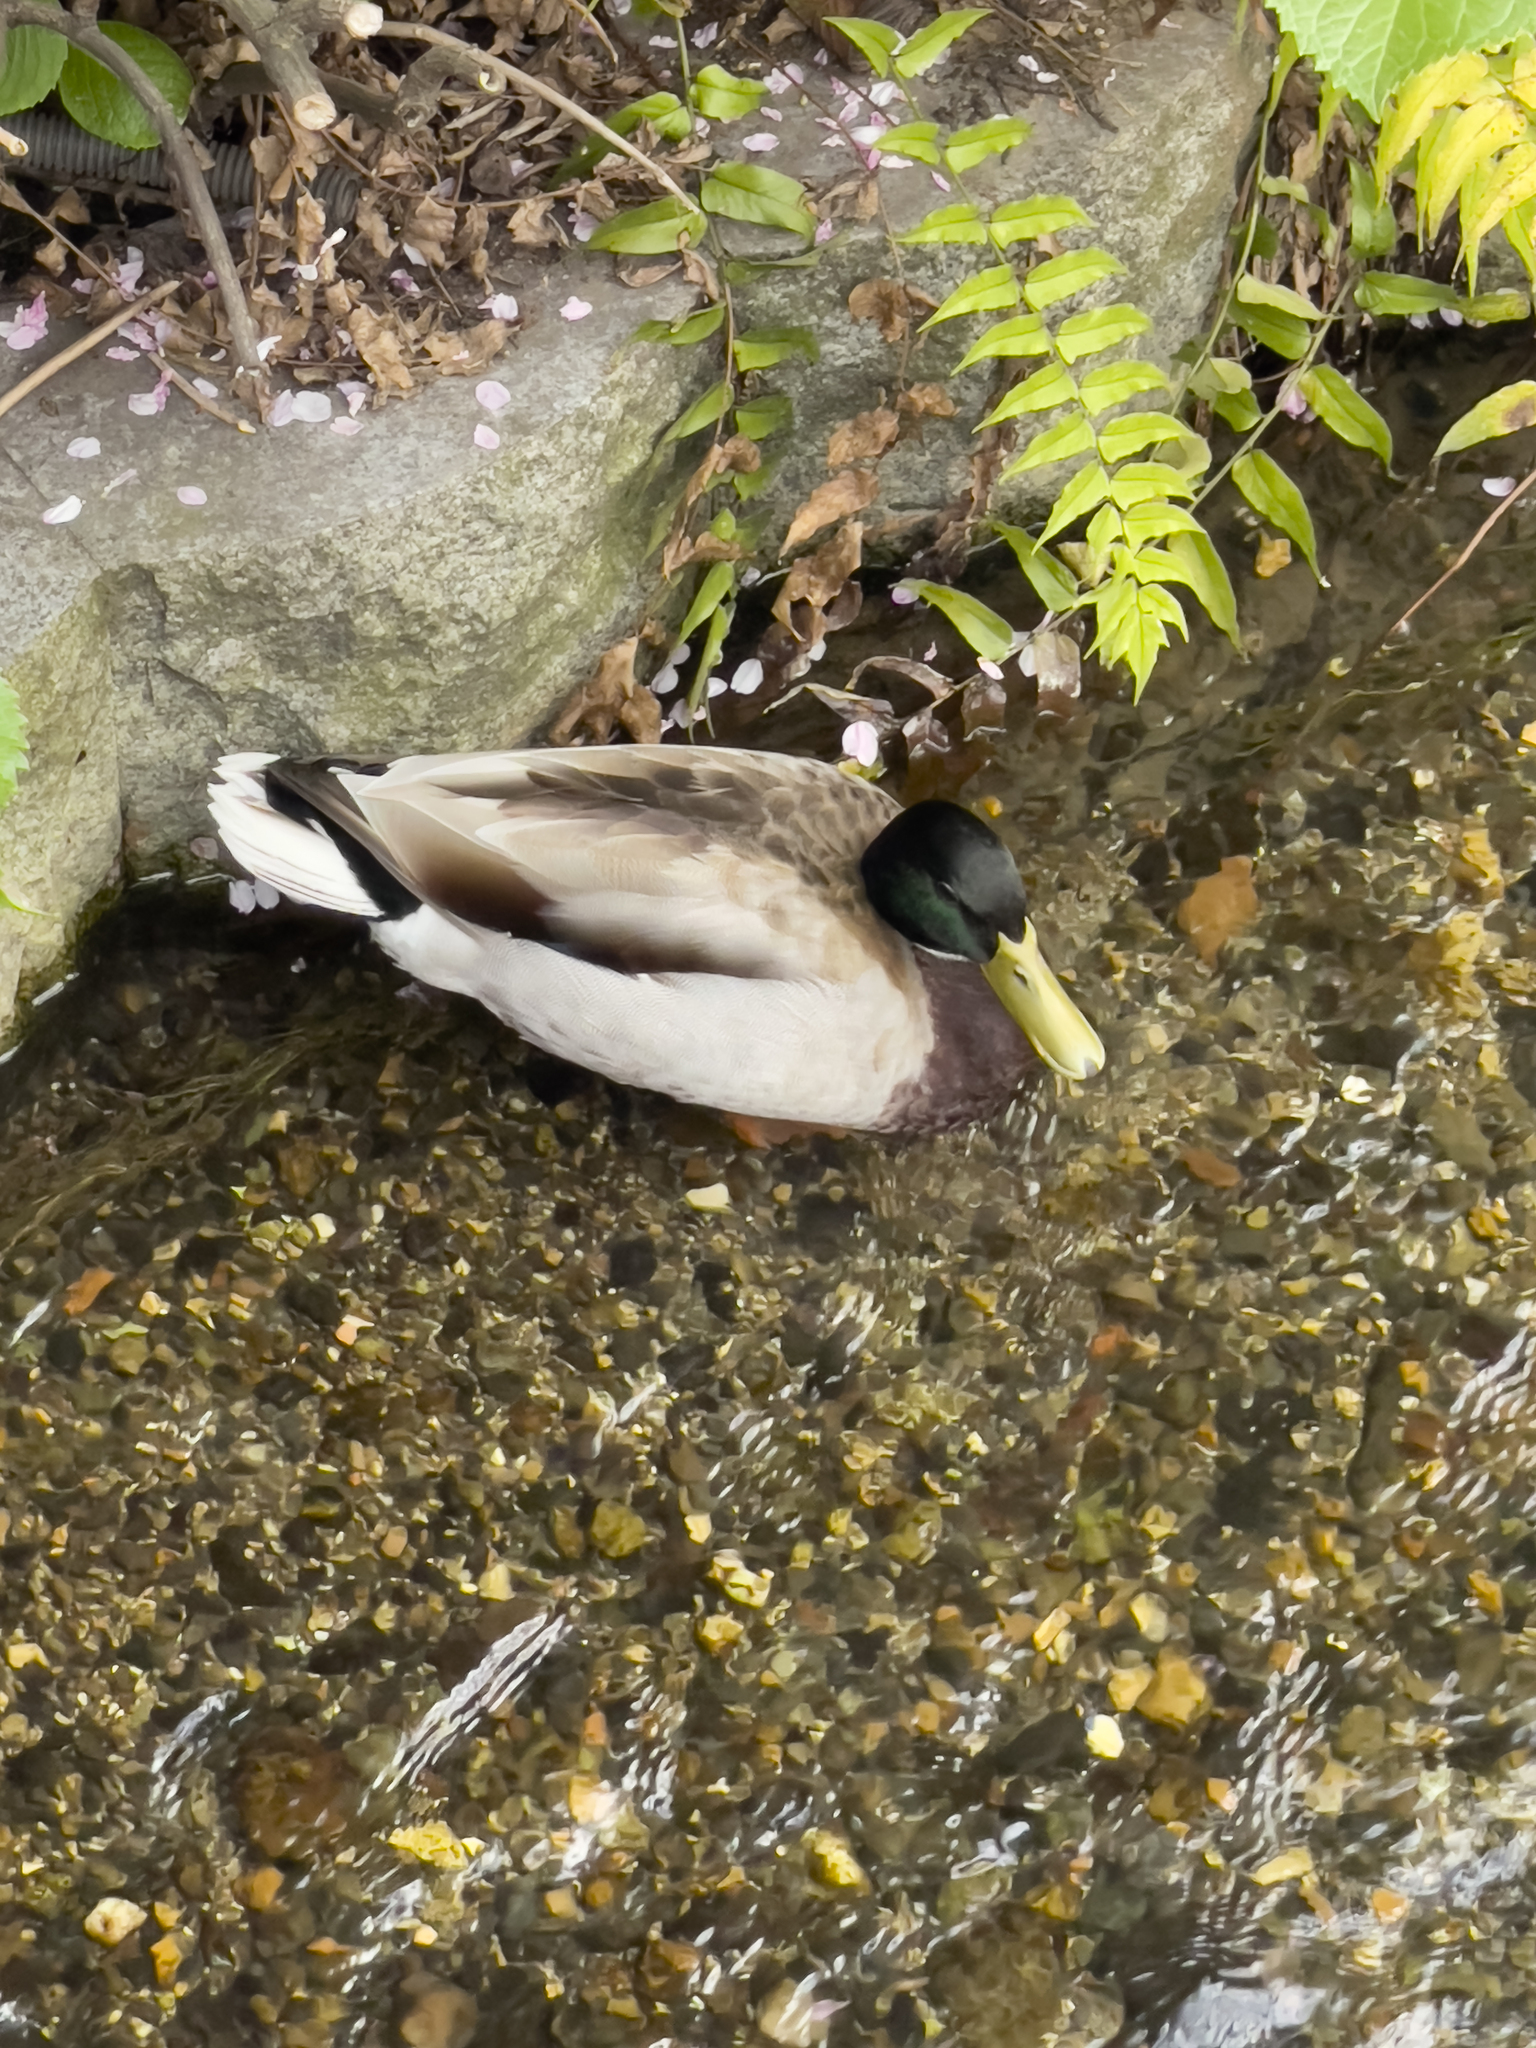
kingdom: Animalia
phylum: Chordata
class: Aves
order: Anseriformes
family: Anatidae
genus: Anas
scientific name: Anas platyrhynchos
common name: Mallard
